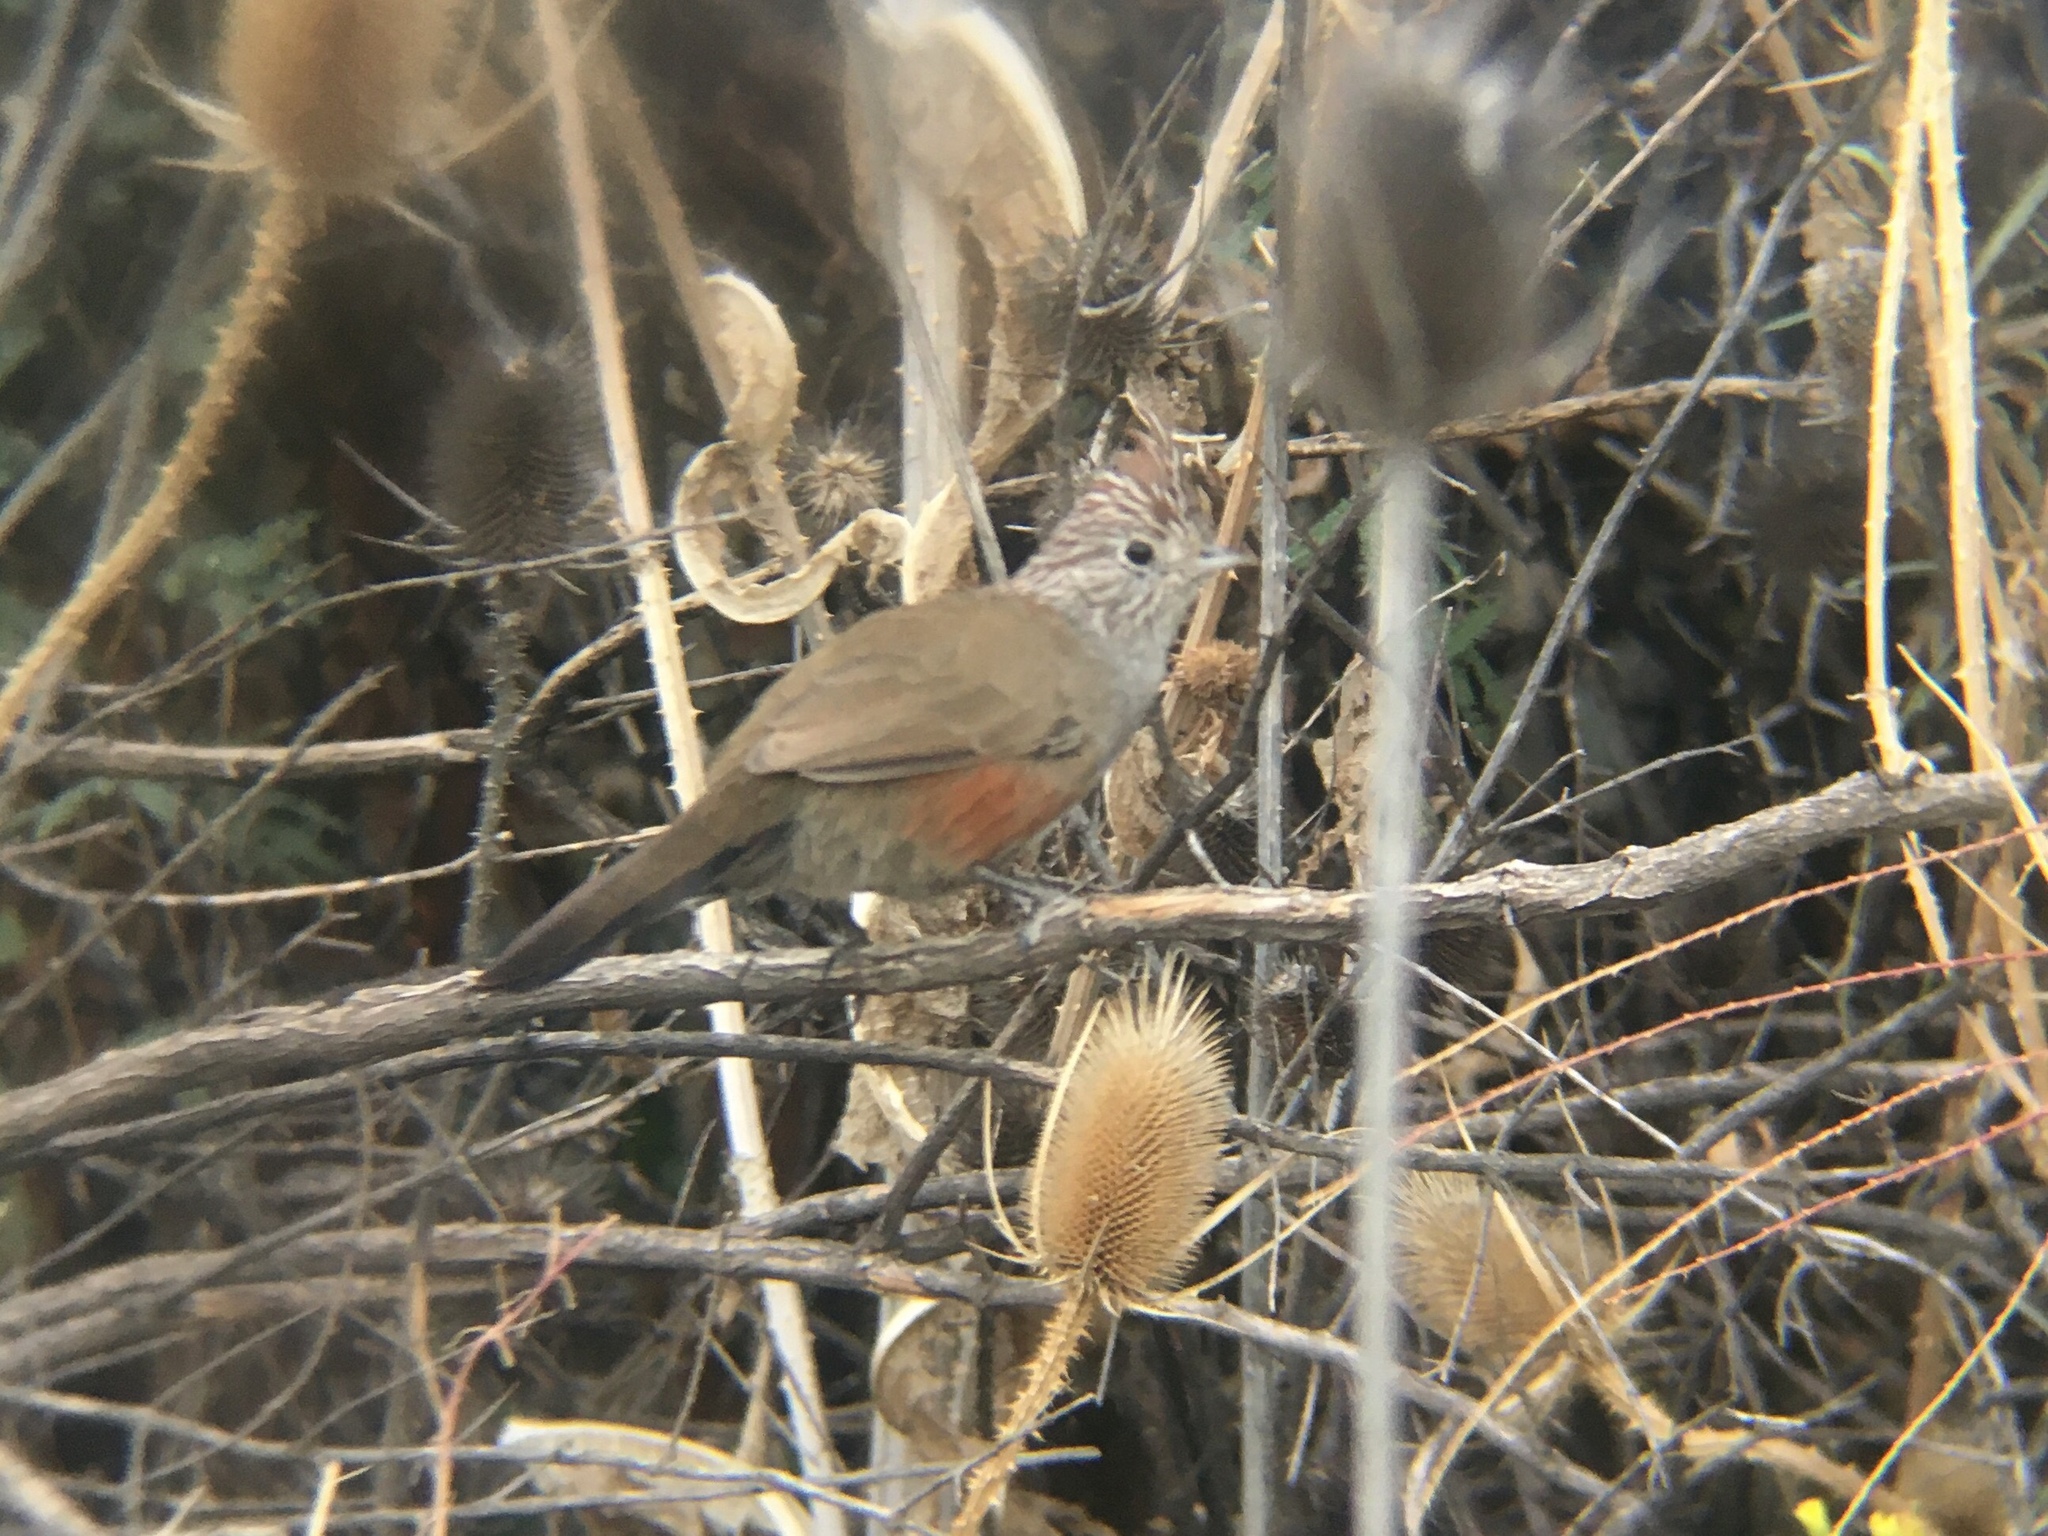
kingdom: Animalia
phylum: Chordata
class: Aves
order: Passeriformes
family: Rhinocryptidae
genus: Rhinocrypta
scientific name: Rhinocrypta lanceolata
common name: Crested gallito
